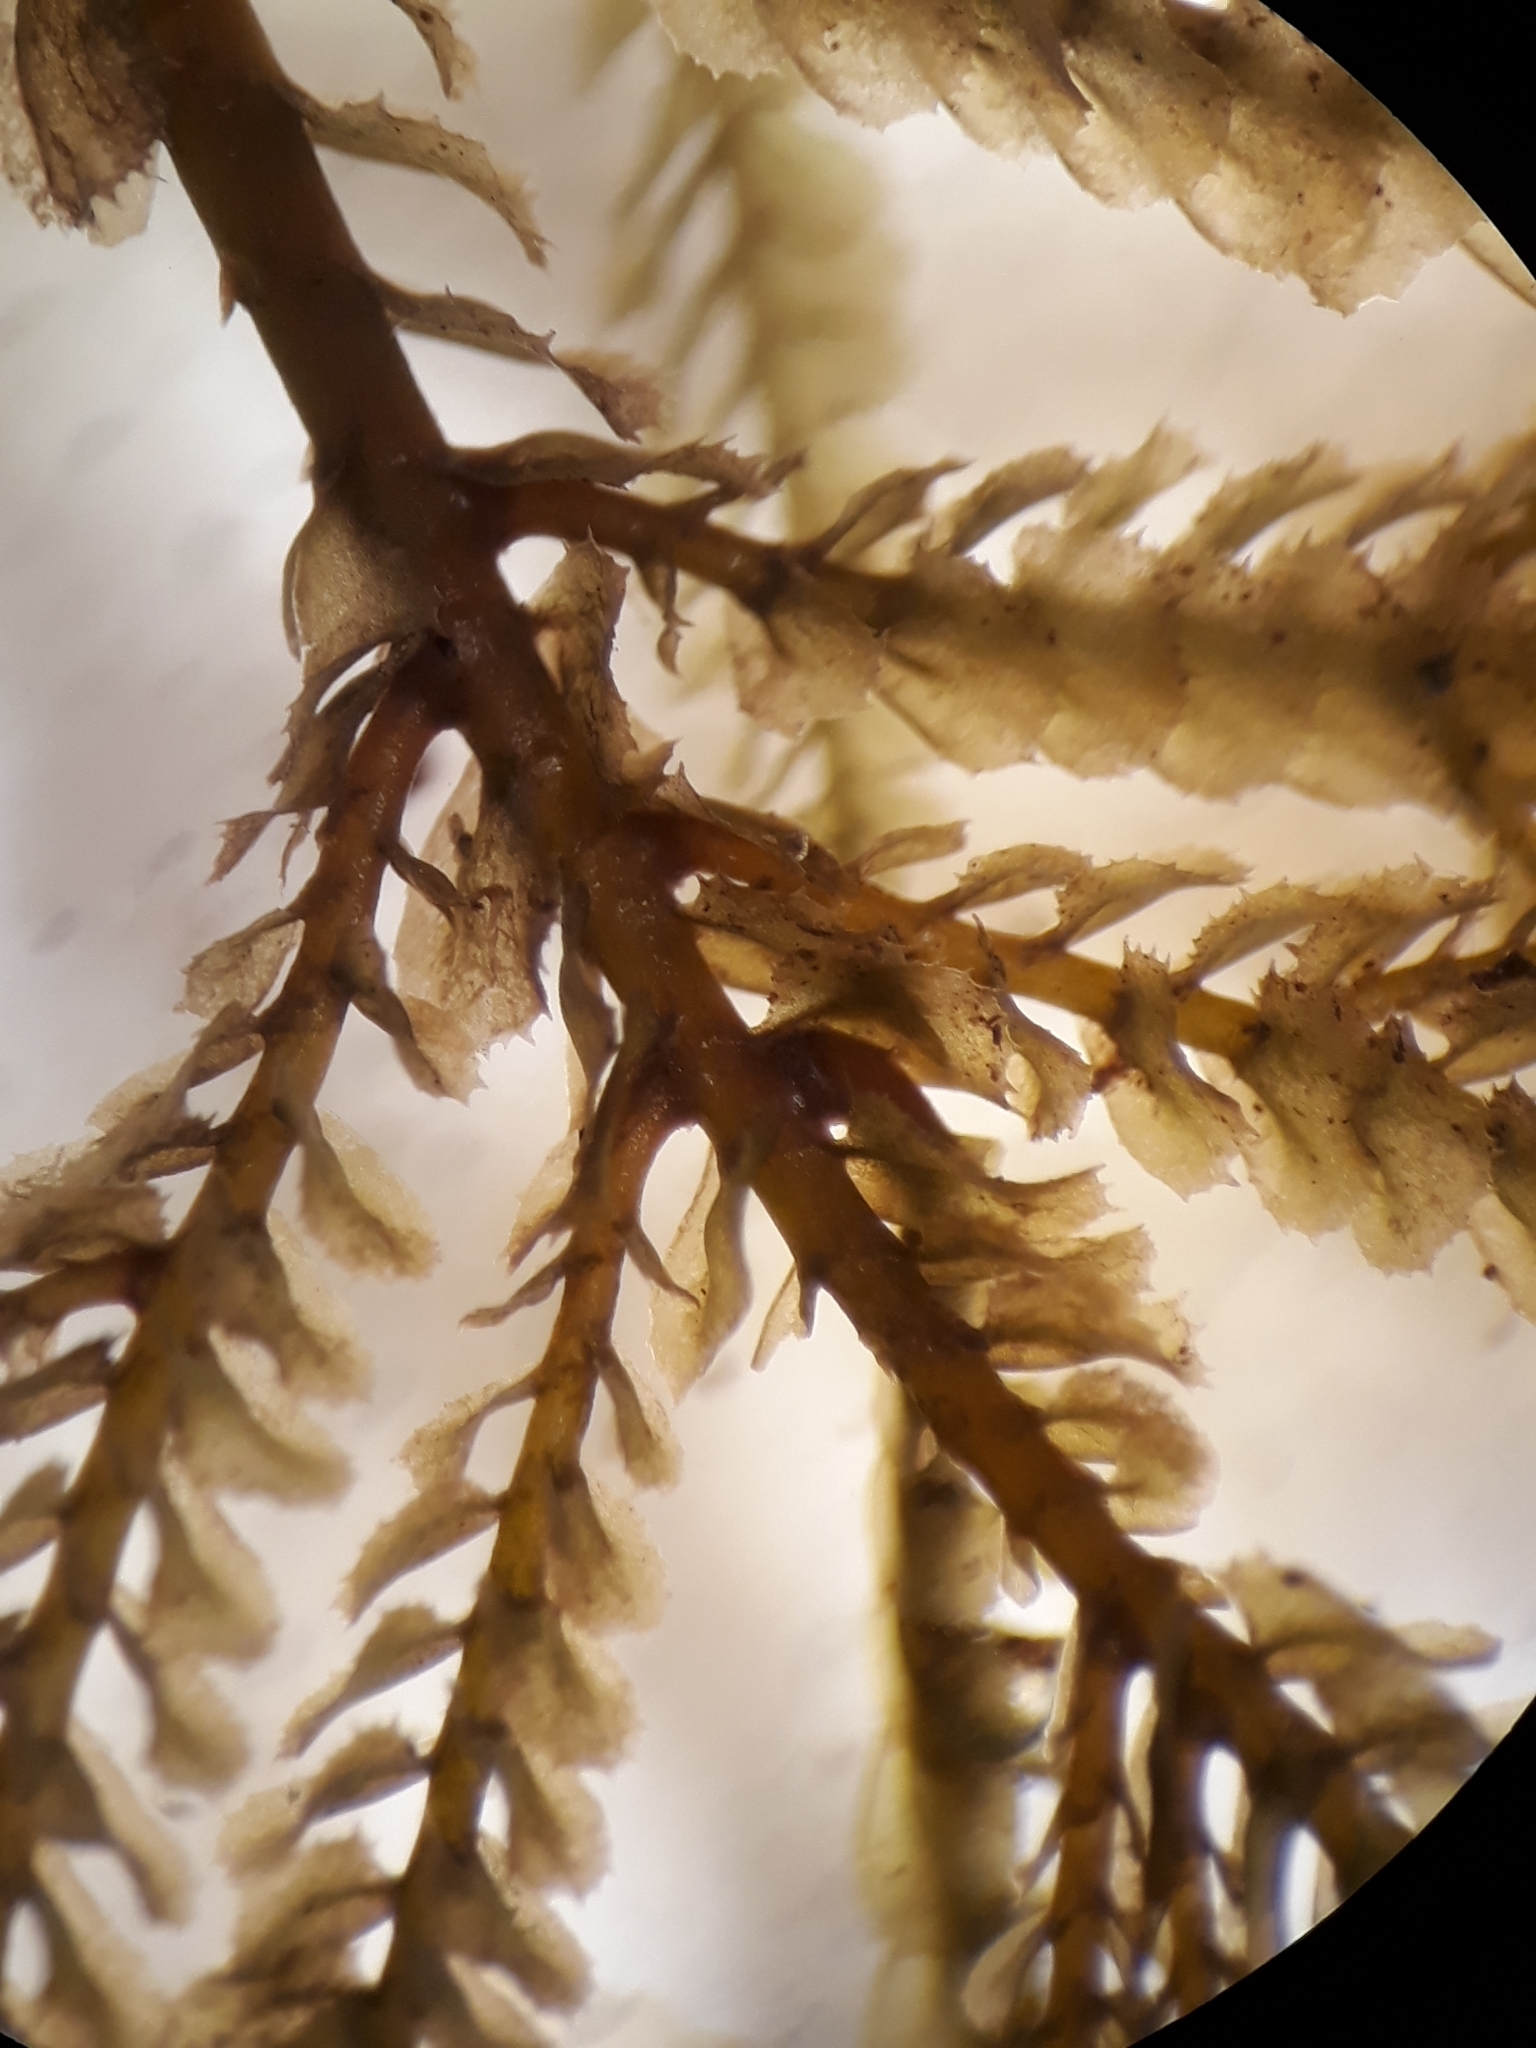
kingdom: Plantae
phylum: Marchantiophyta
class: Jungermanniopsida
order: Jungermanniales
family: Plagiochilaceae
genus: Plagiochila
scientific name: Plagiochila ramosissima
